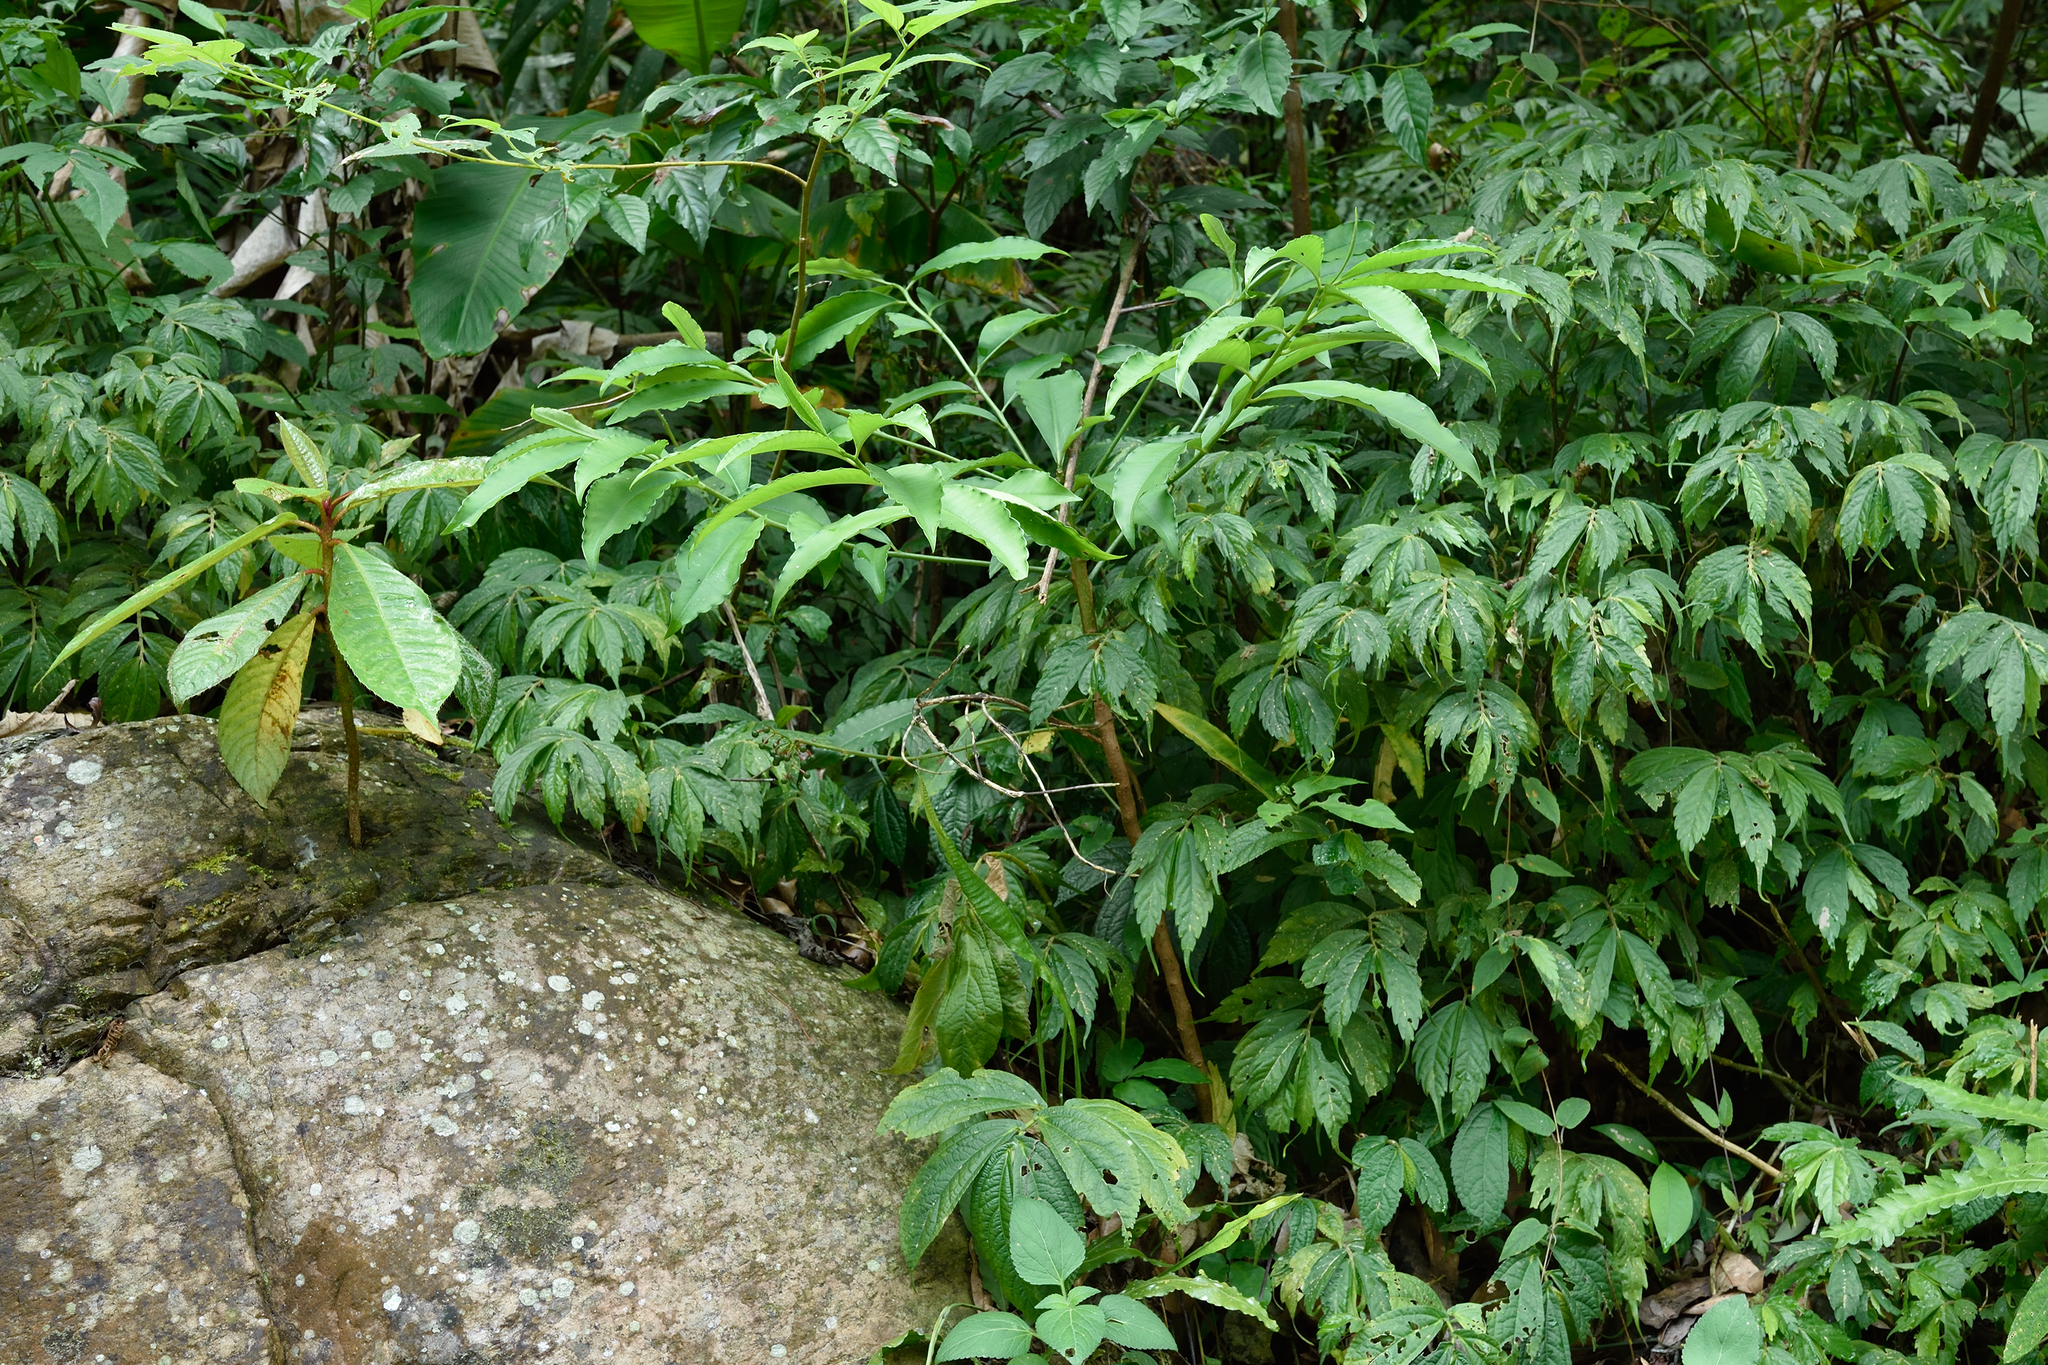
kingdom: Plantae
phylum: Tracheophyta
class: Magnoliopsida
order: Ericales
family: Primulaceae
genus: Ardisia
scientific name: Ardisia polysticta
